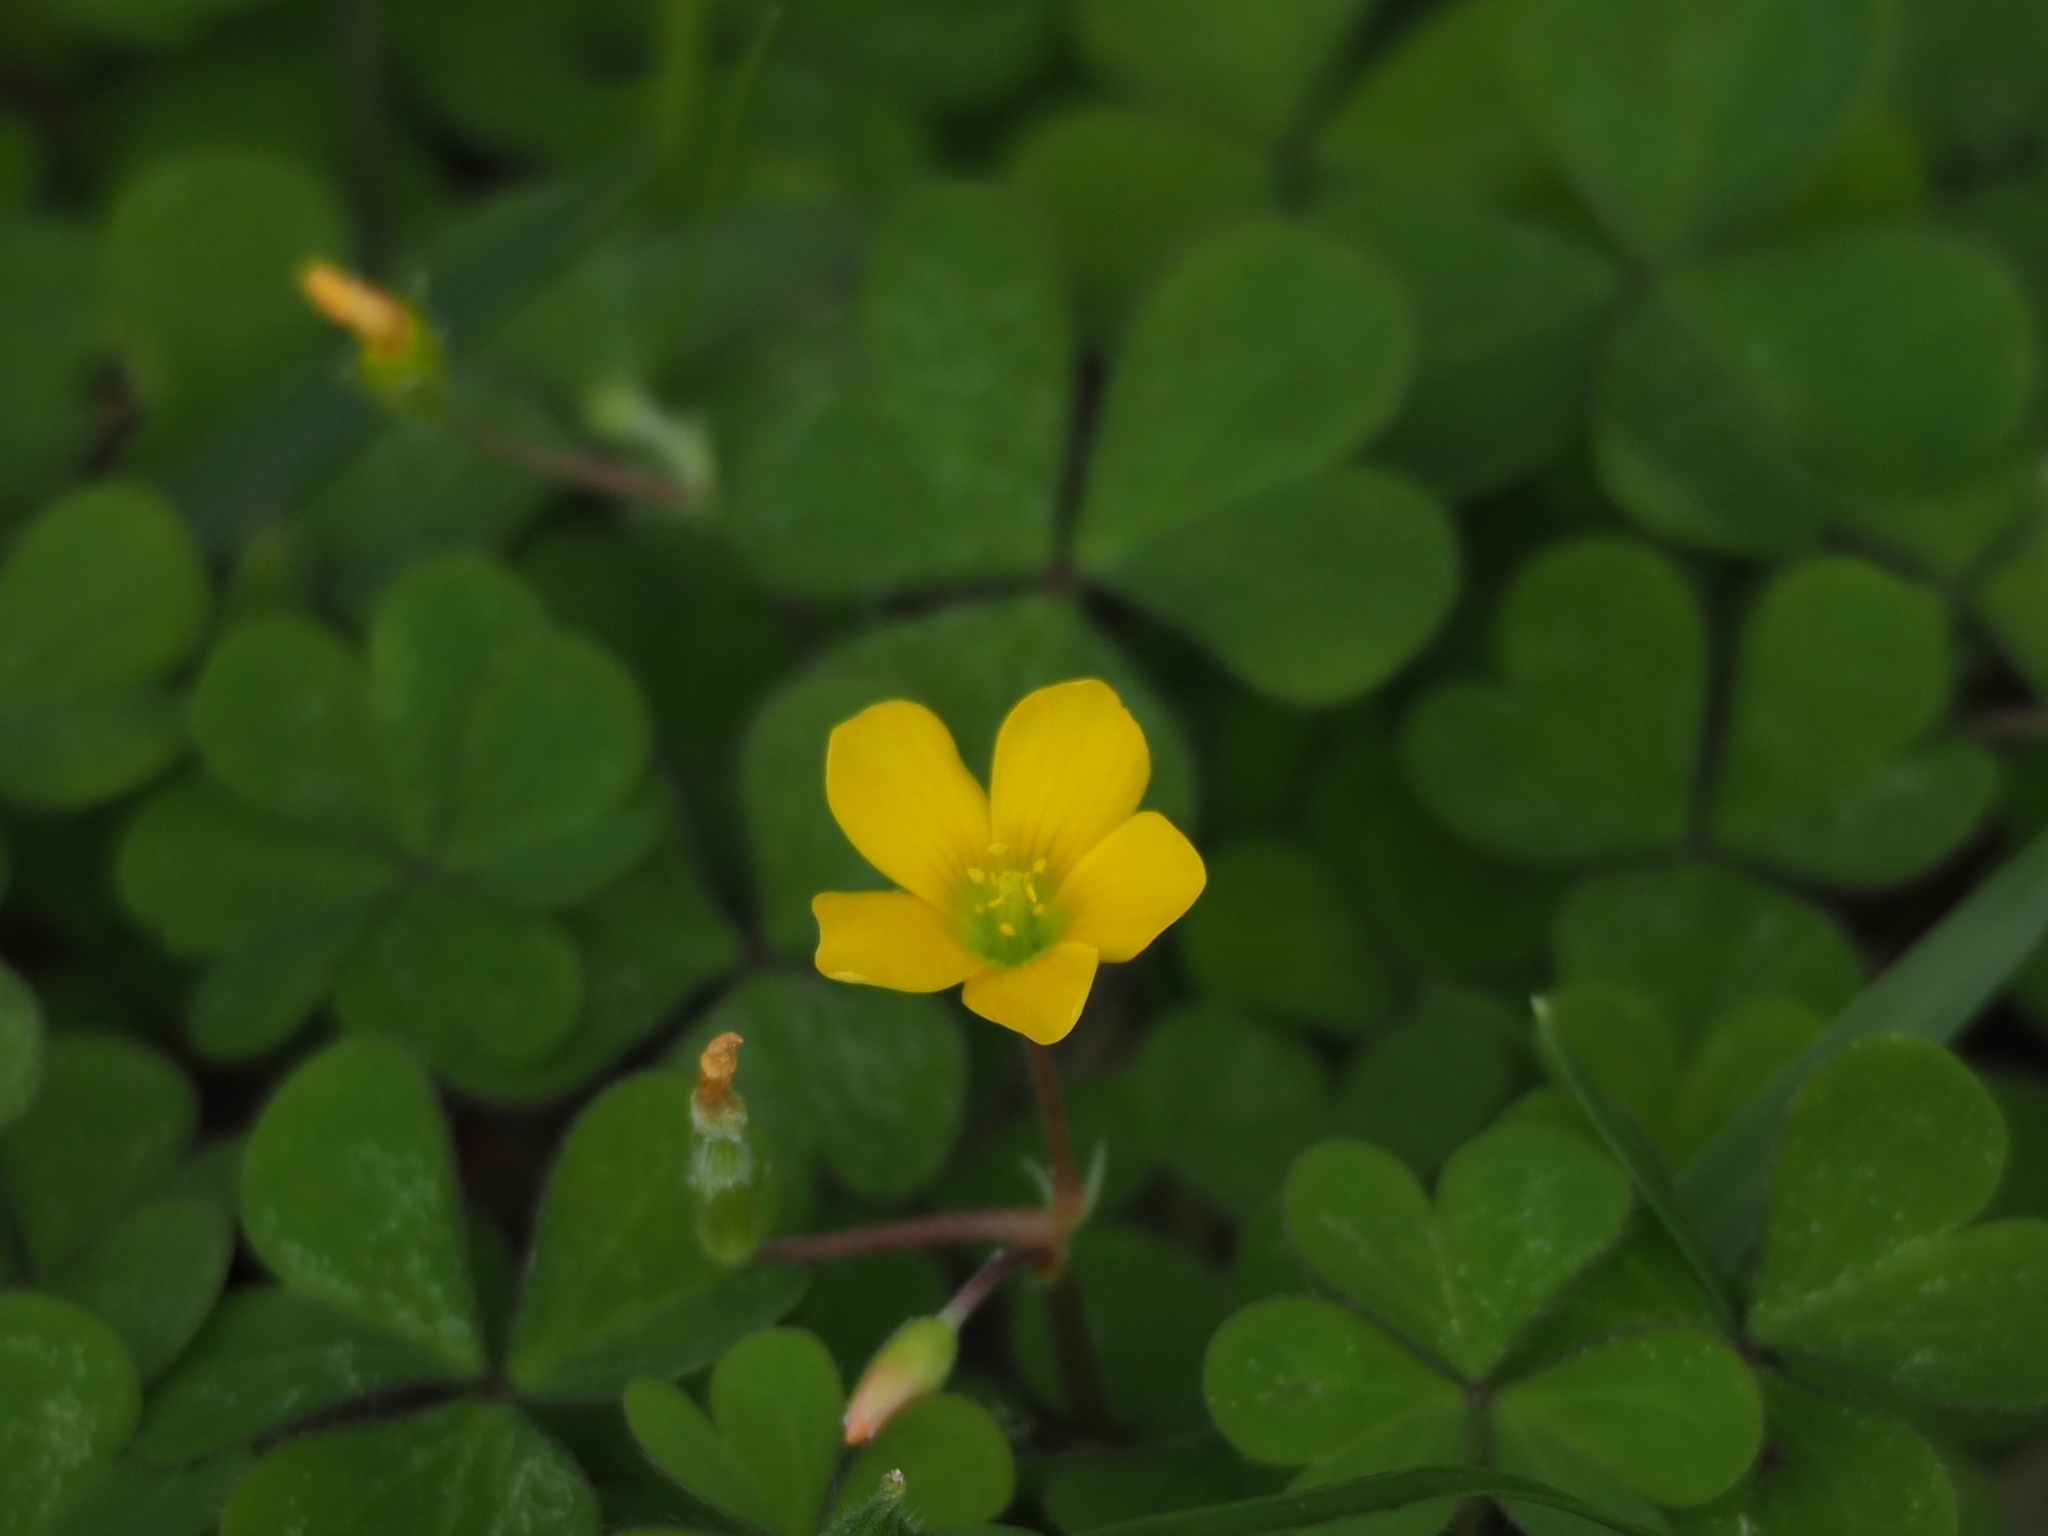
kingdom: Plantae
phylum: Tracheophyta
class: Magnoliopsida
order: Oxalidales
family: Oxalidaceae
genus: Oxalis
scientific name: Oxalis corniculata
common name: Procumbent yellow-sorrel
